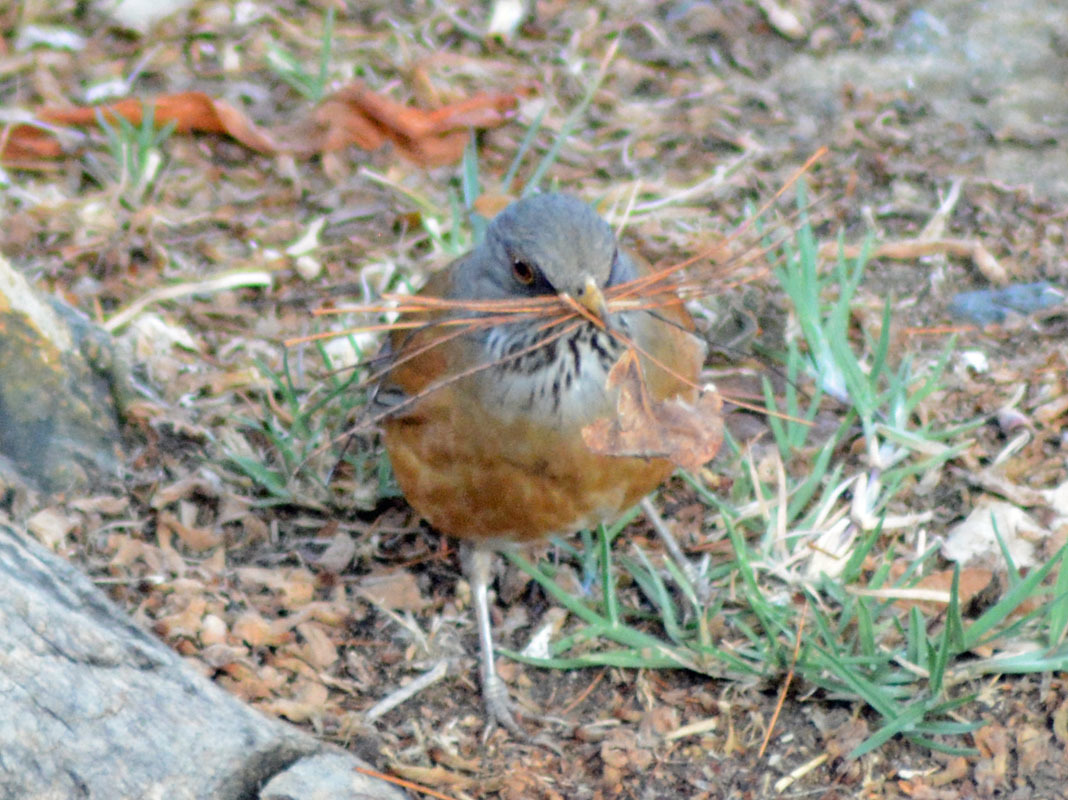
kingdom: Animalia
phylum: Chordata
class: Aves
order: Passeriformes
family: Turdidae
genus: Turdus
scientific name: Turdus rufopalliatus
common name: Rufous-backed robin
